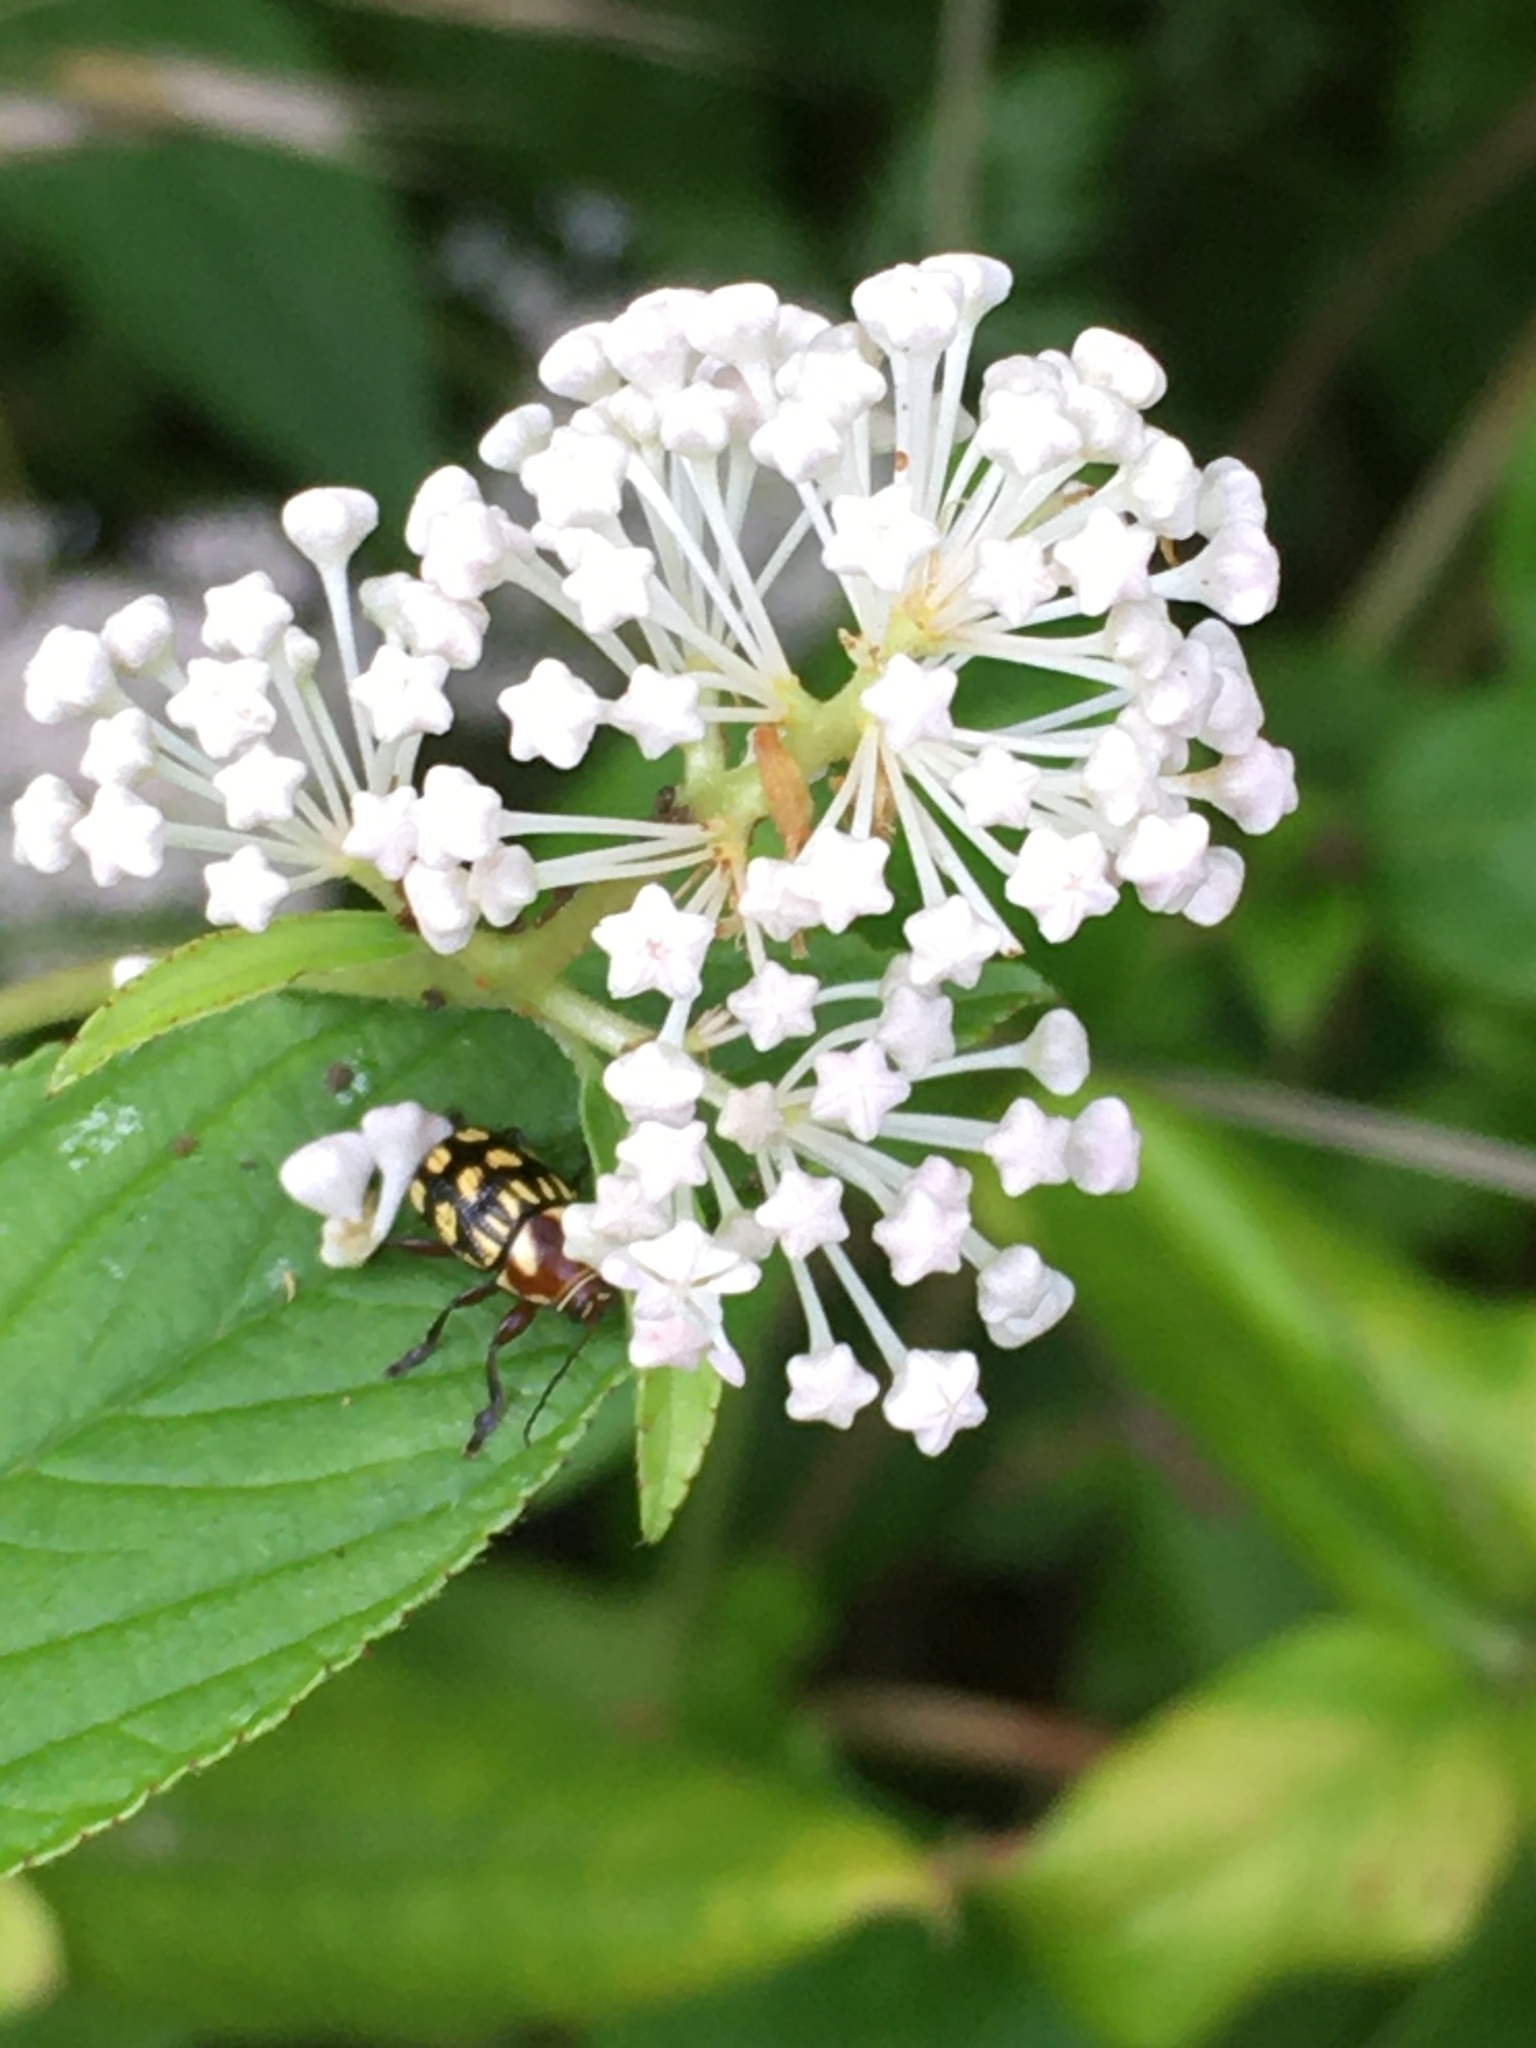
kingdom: Plantae
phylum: Tracheophyta
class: Magnoliopsida
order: Rosales
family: Rhamnaceae
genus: Ceanothus
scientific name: Ceanothus americanus
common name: Redroot
